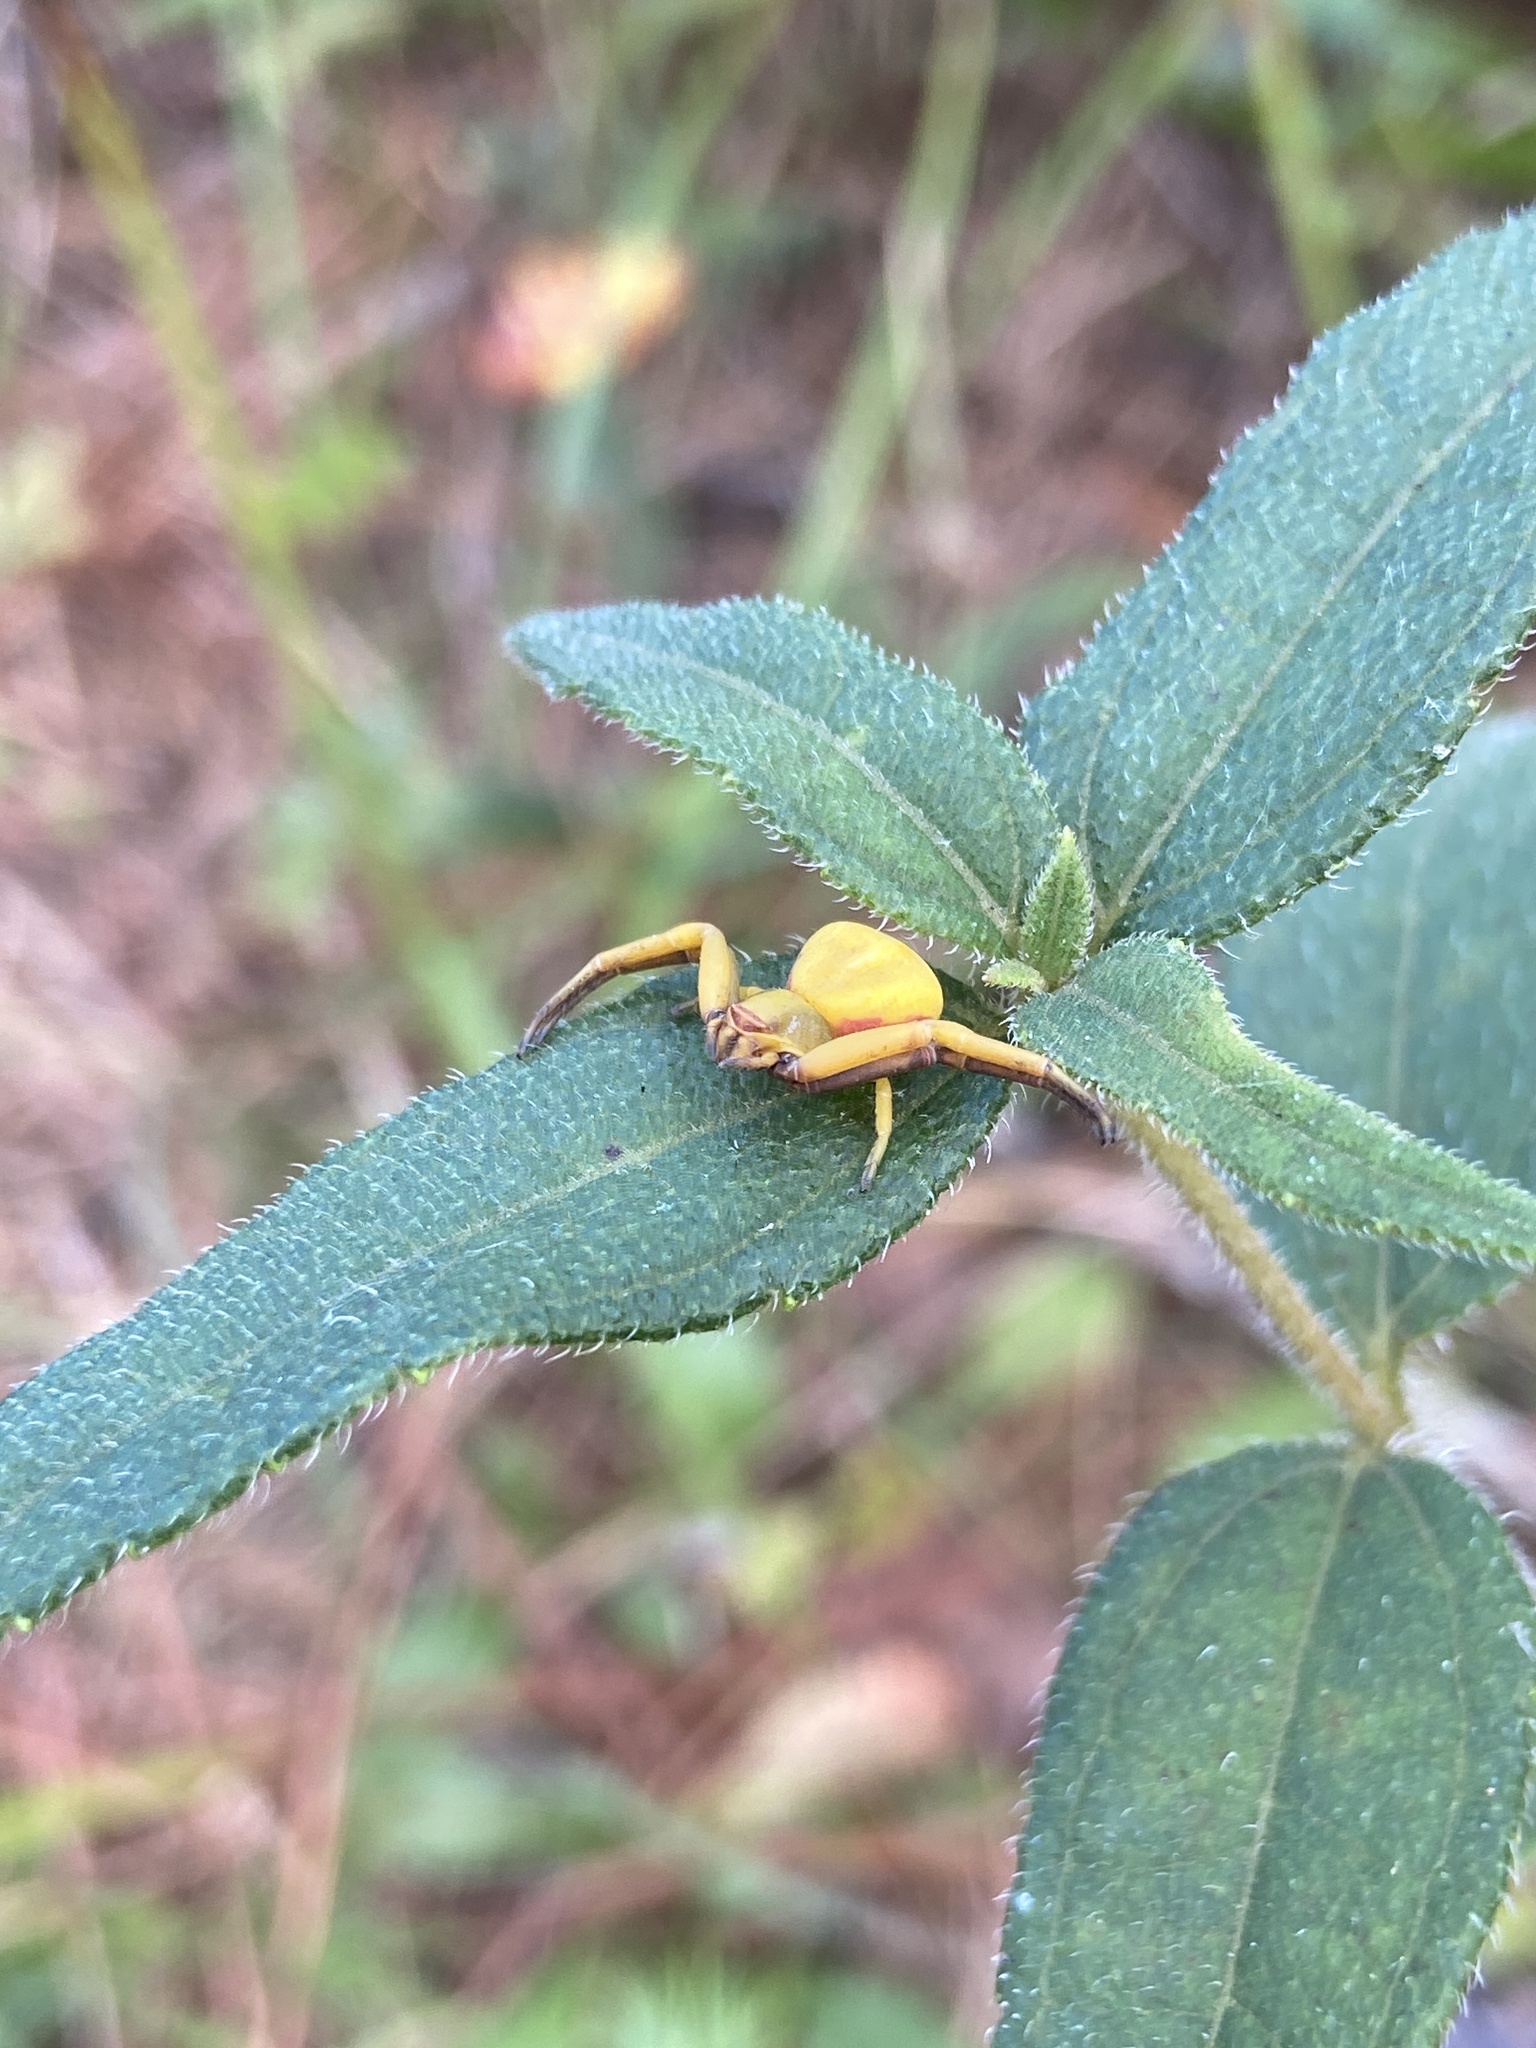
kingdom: Animalia
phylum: Arthropoda
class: Arachnida
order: Araneae
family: Thomisidae
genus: Misumenoides
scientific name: Misumenoides formosipes
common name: White-banded crab spider
